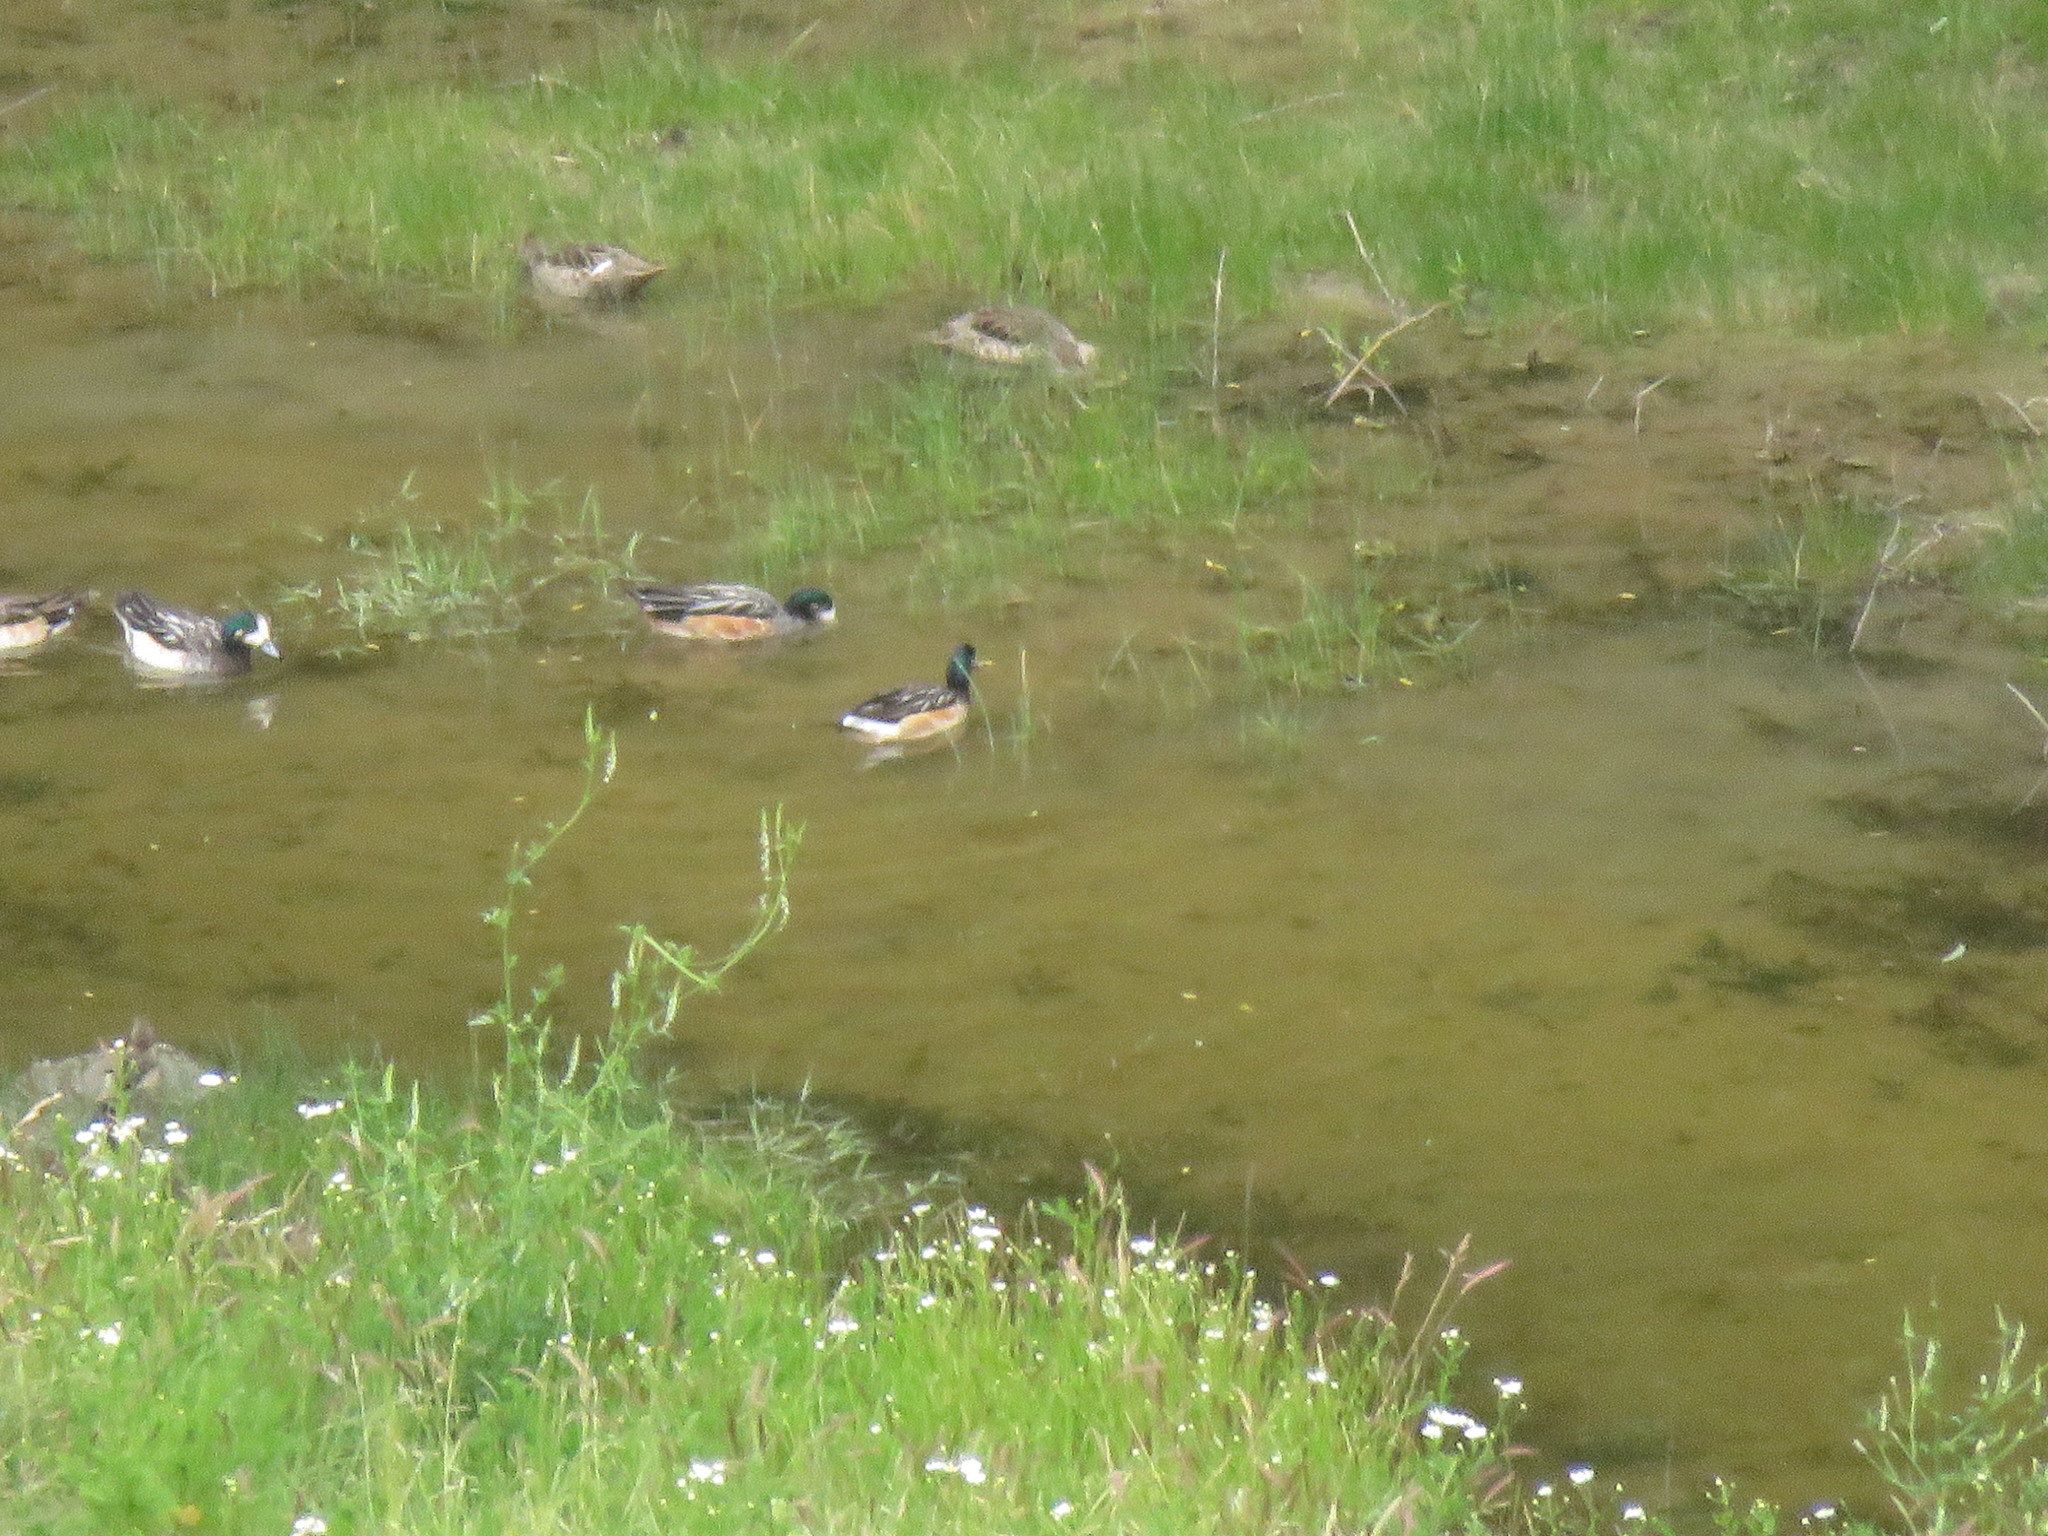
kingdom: Animalia
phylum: Chordata
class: Aves
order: Anseriformes
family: Anatidae
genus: Mareca
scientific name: Mareca sibilatrix
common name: Chiloe wigeon
